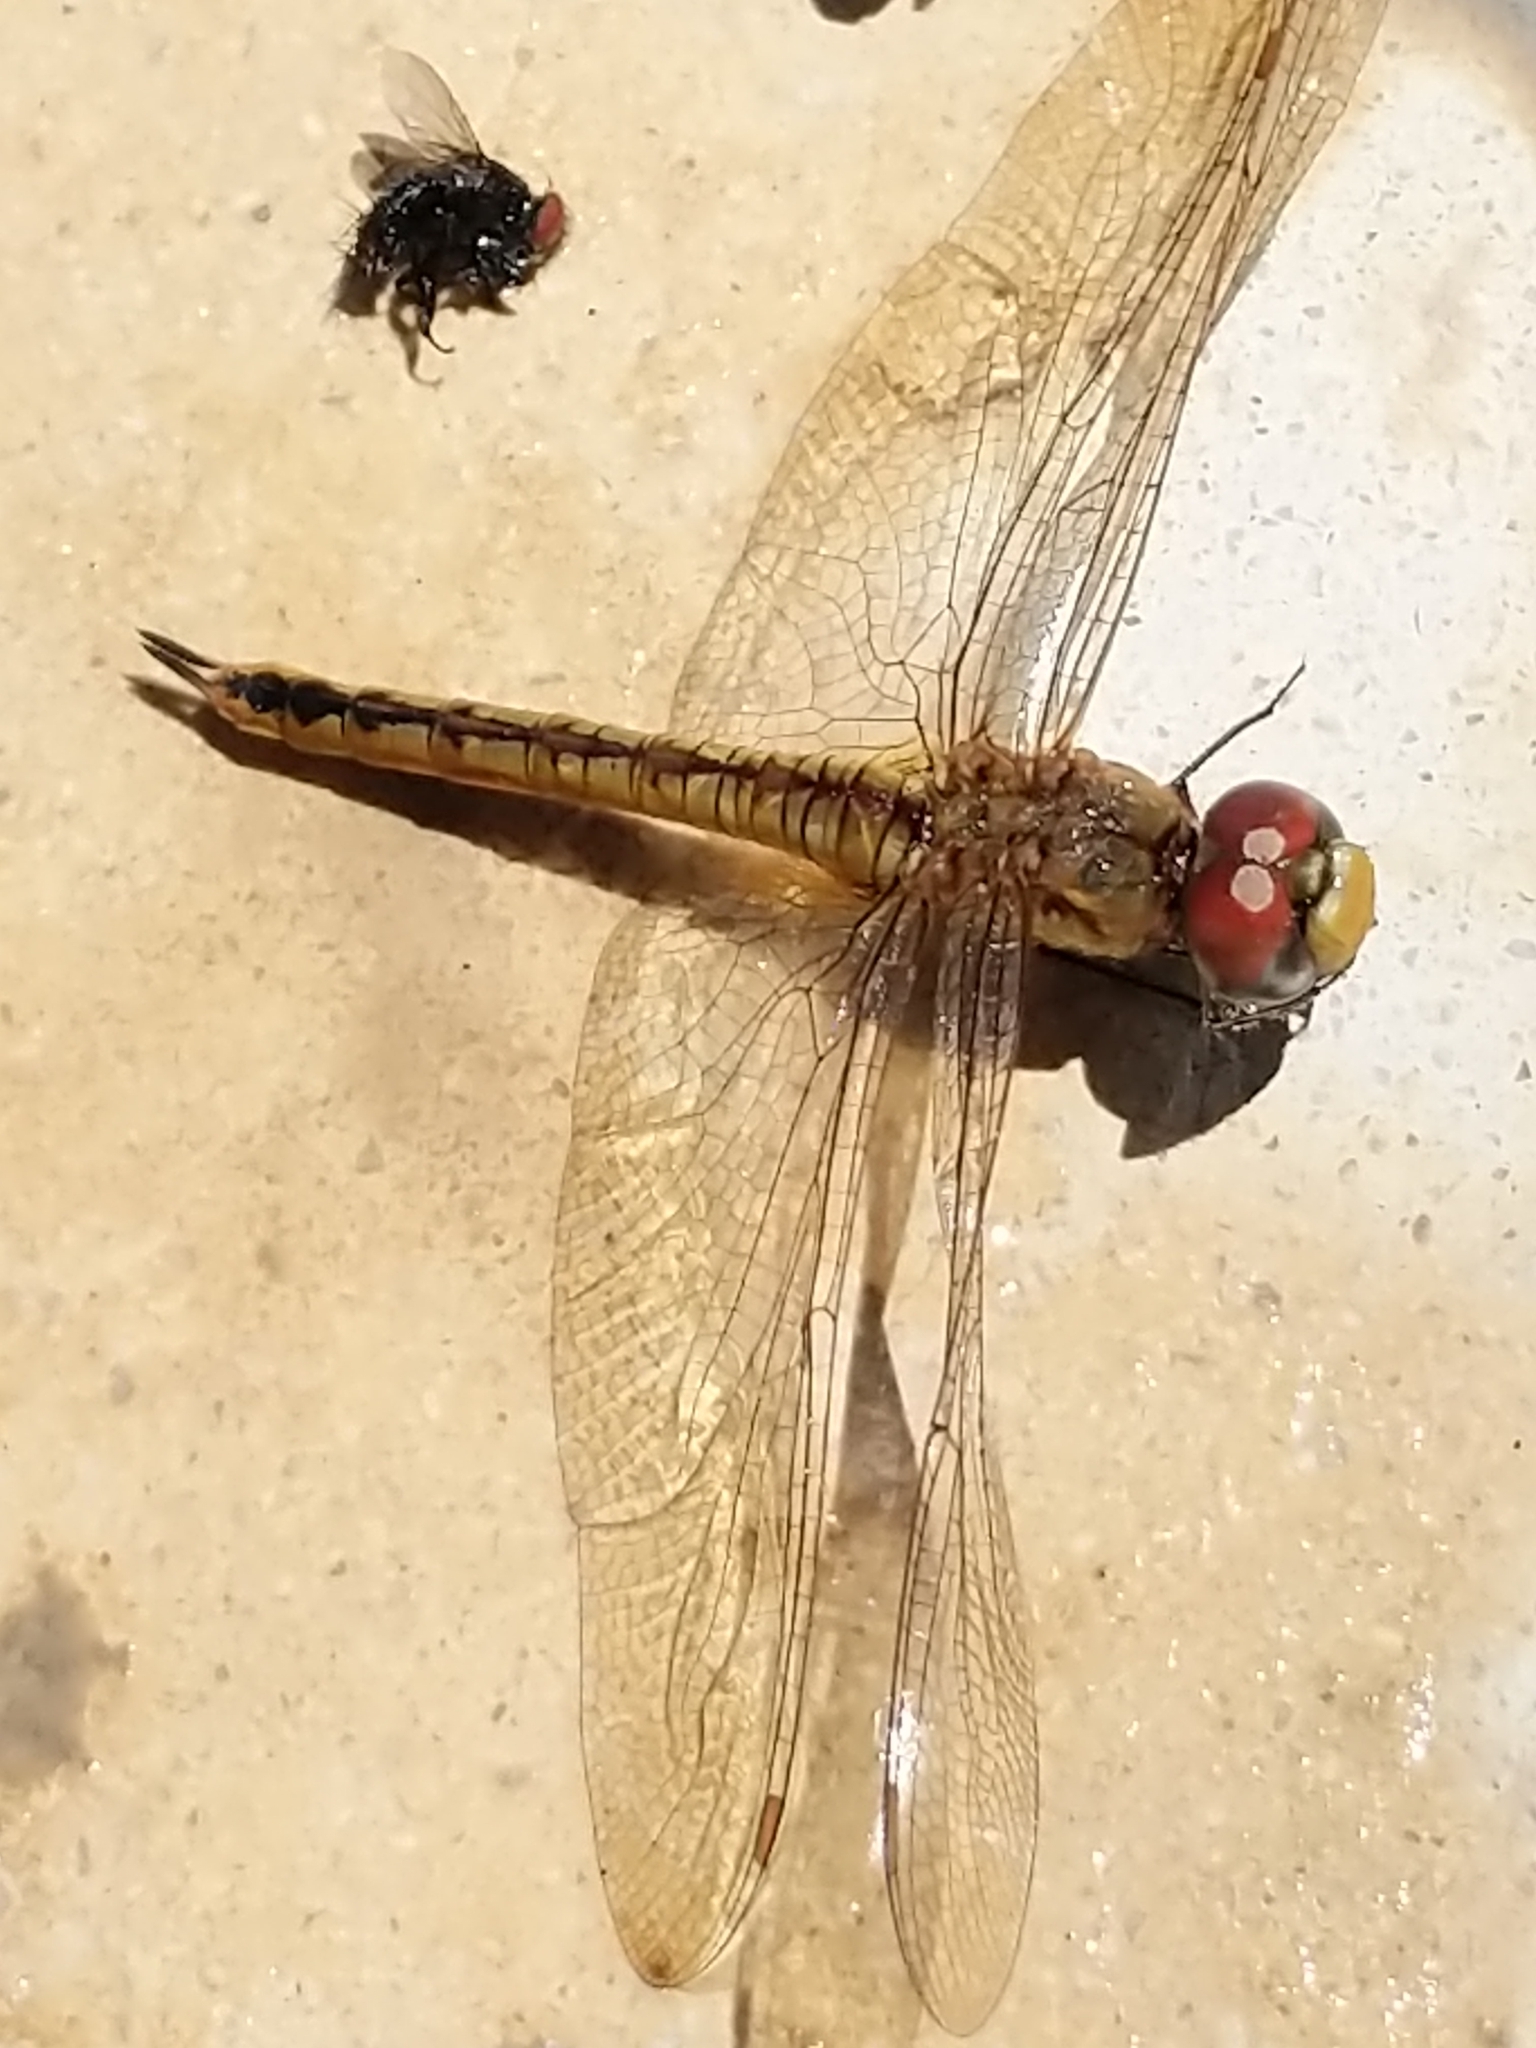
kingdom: Animalia
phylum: Arthropoda
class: Insecta
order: Odonata
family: Libellulidae
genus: Pantala
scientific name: Pantala flavescens
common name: Wandering glider
